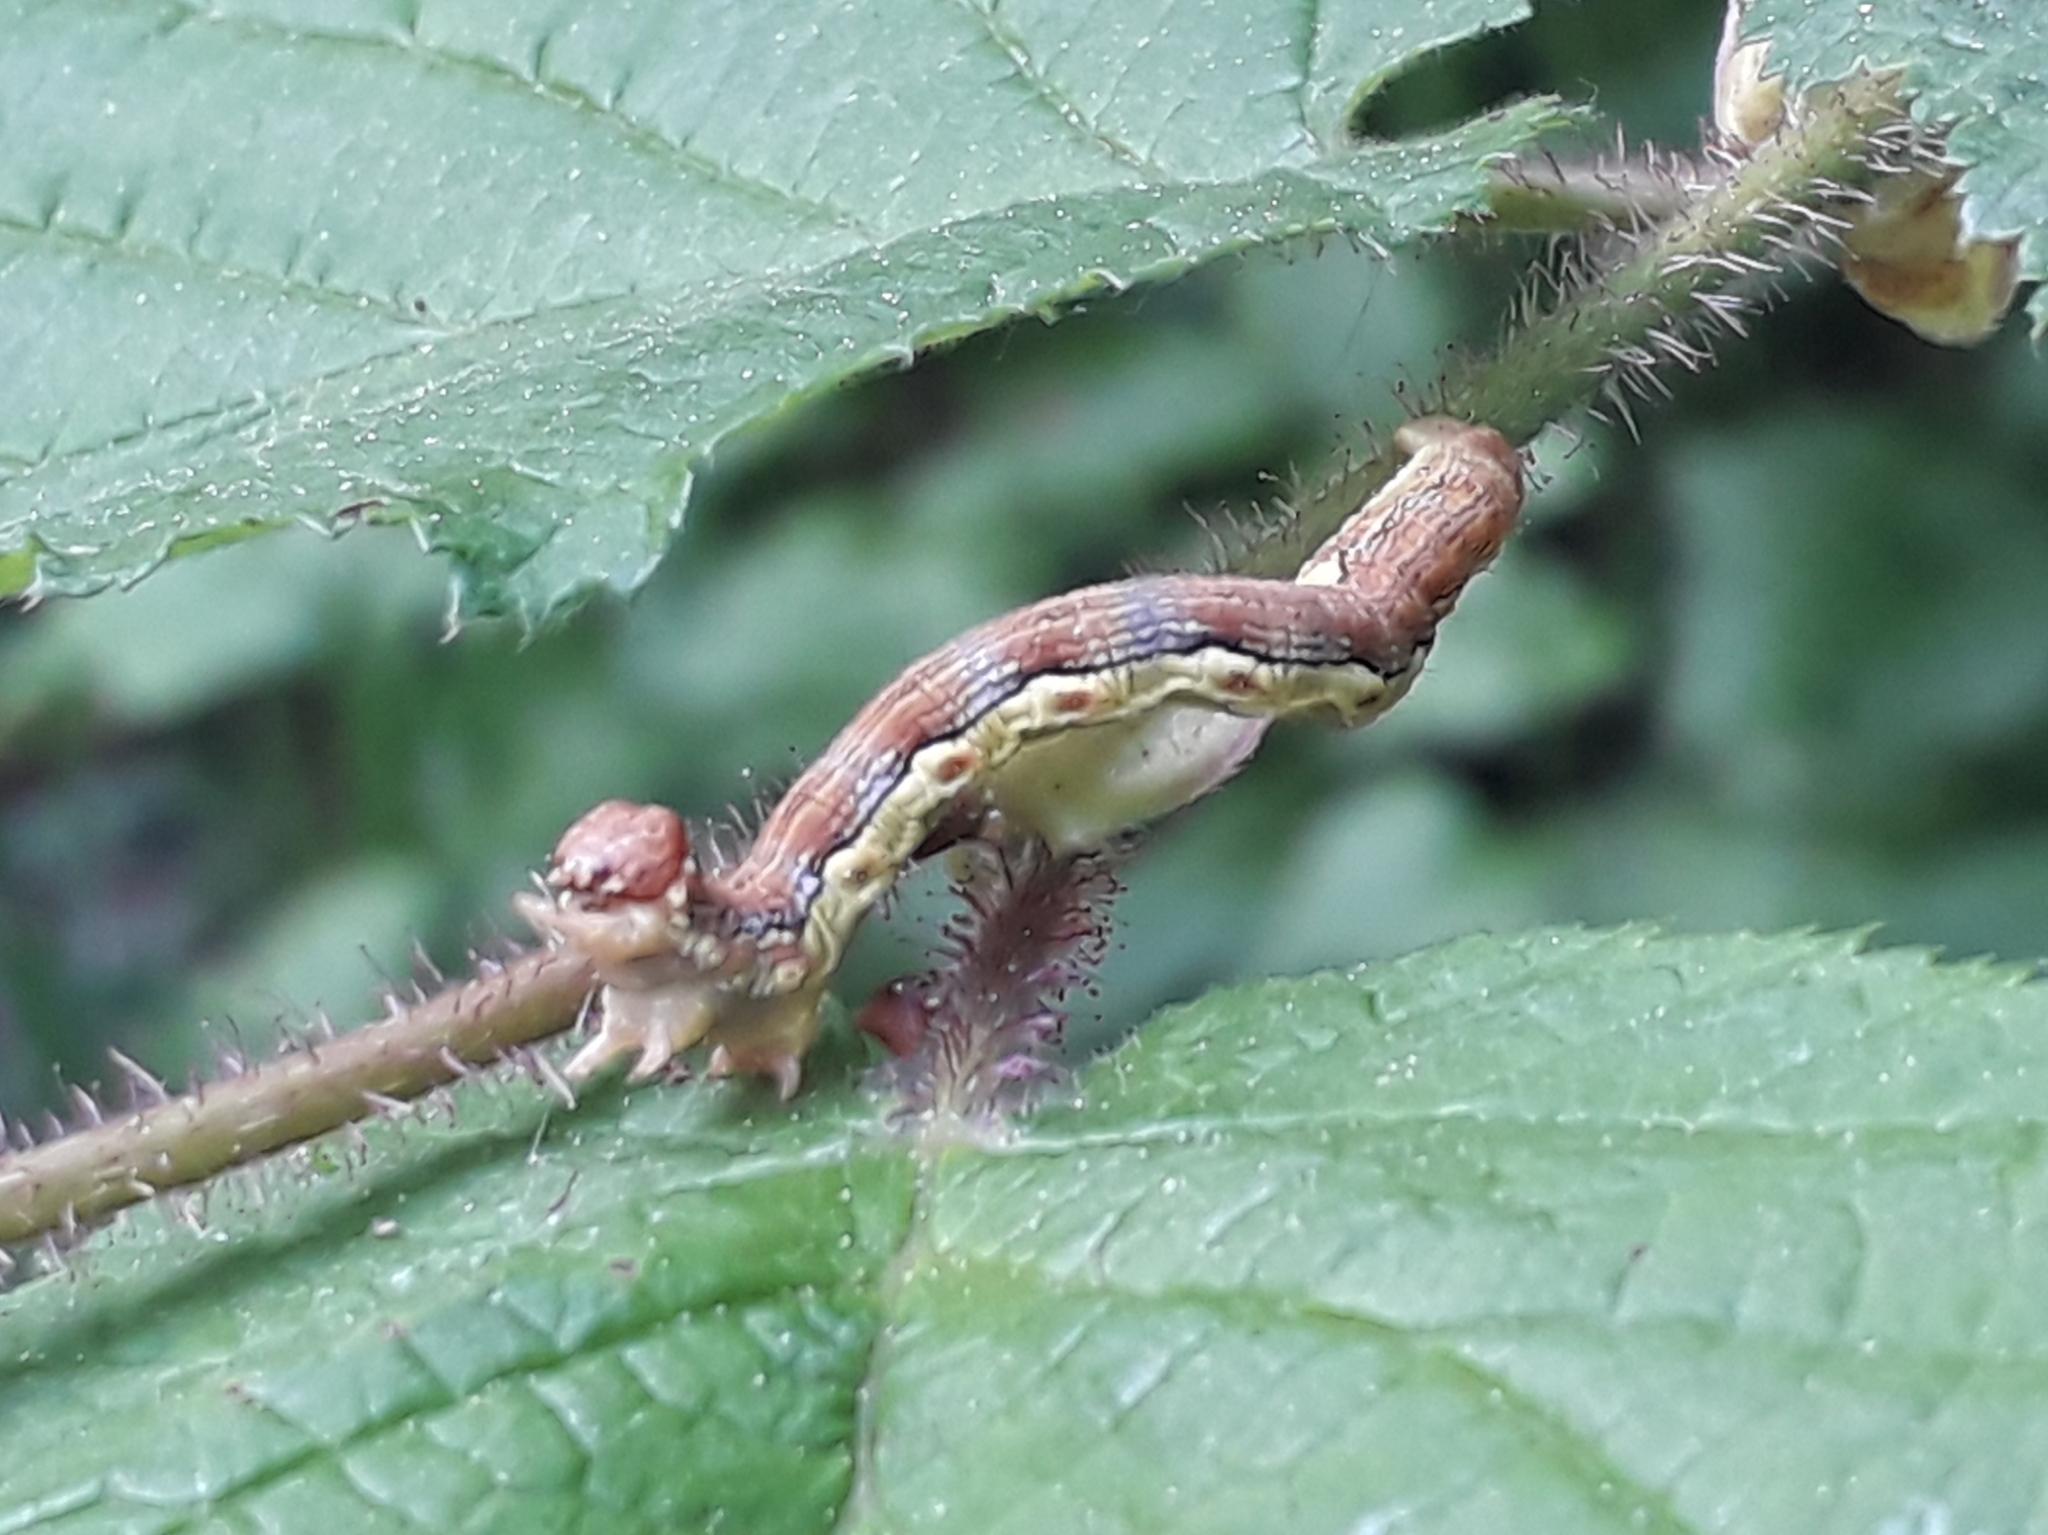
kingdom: Animalia
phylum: Arthropoda
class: Insecta
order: Lepidoptera
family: Geometridae
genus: Erannis
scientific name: Erannis defoliaria
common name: Mottled umber
